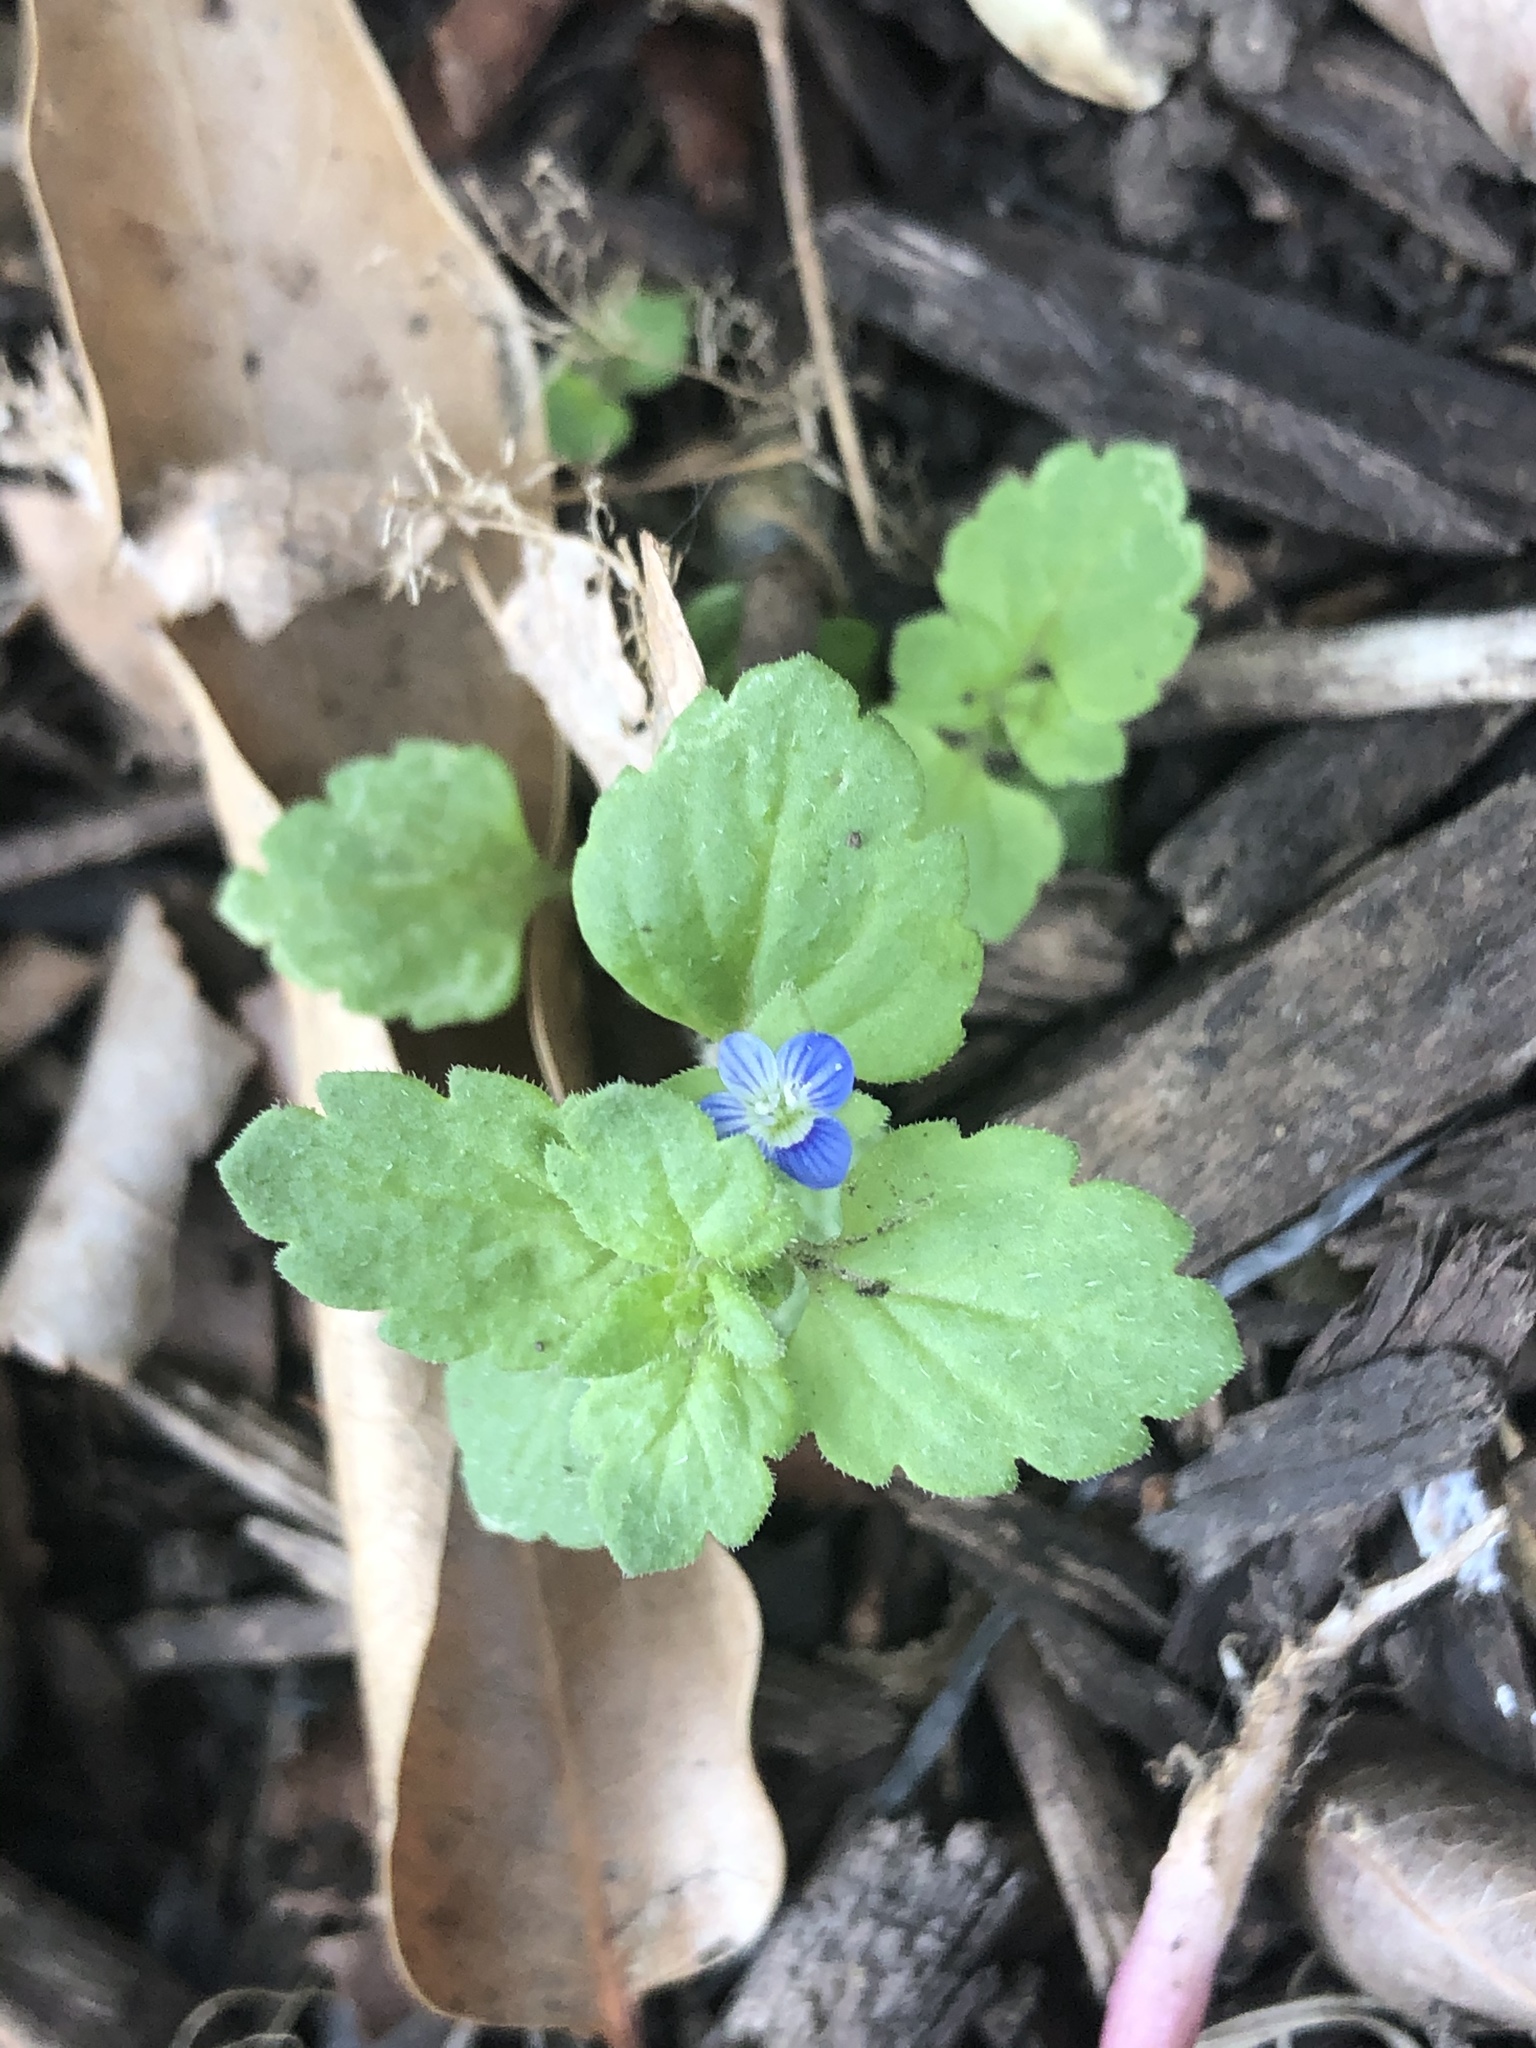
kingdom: Plantae
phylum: Tracheophyta
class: Magnoliopsida
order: Lamiales
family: Plantaginaceae
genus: Veronica
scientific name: Veronica persica
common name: Common field-speedwell
